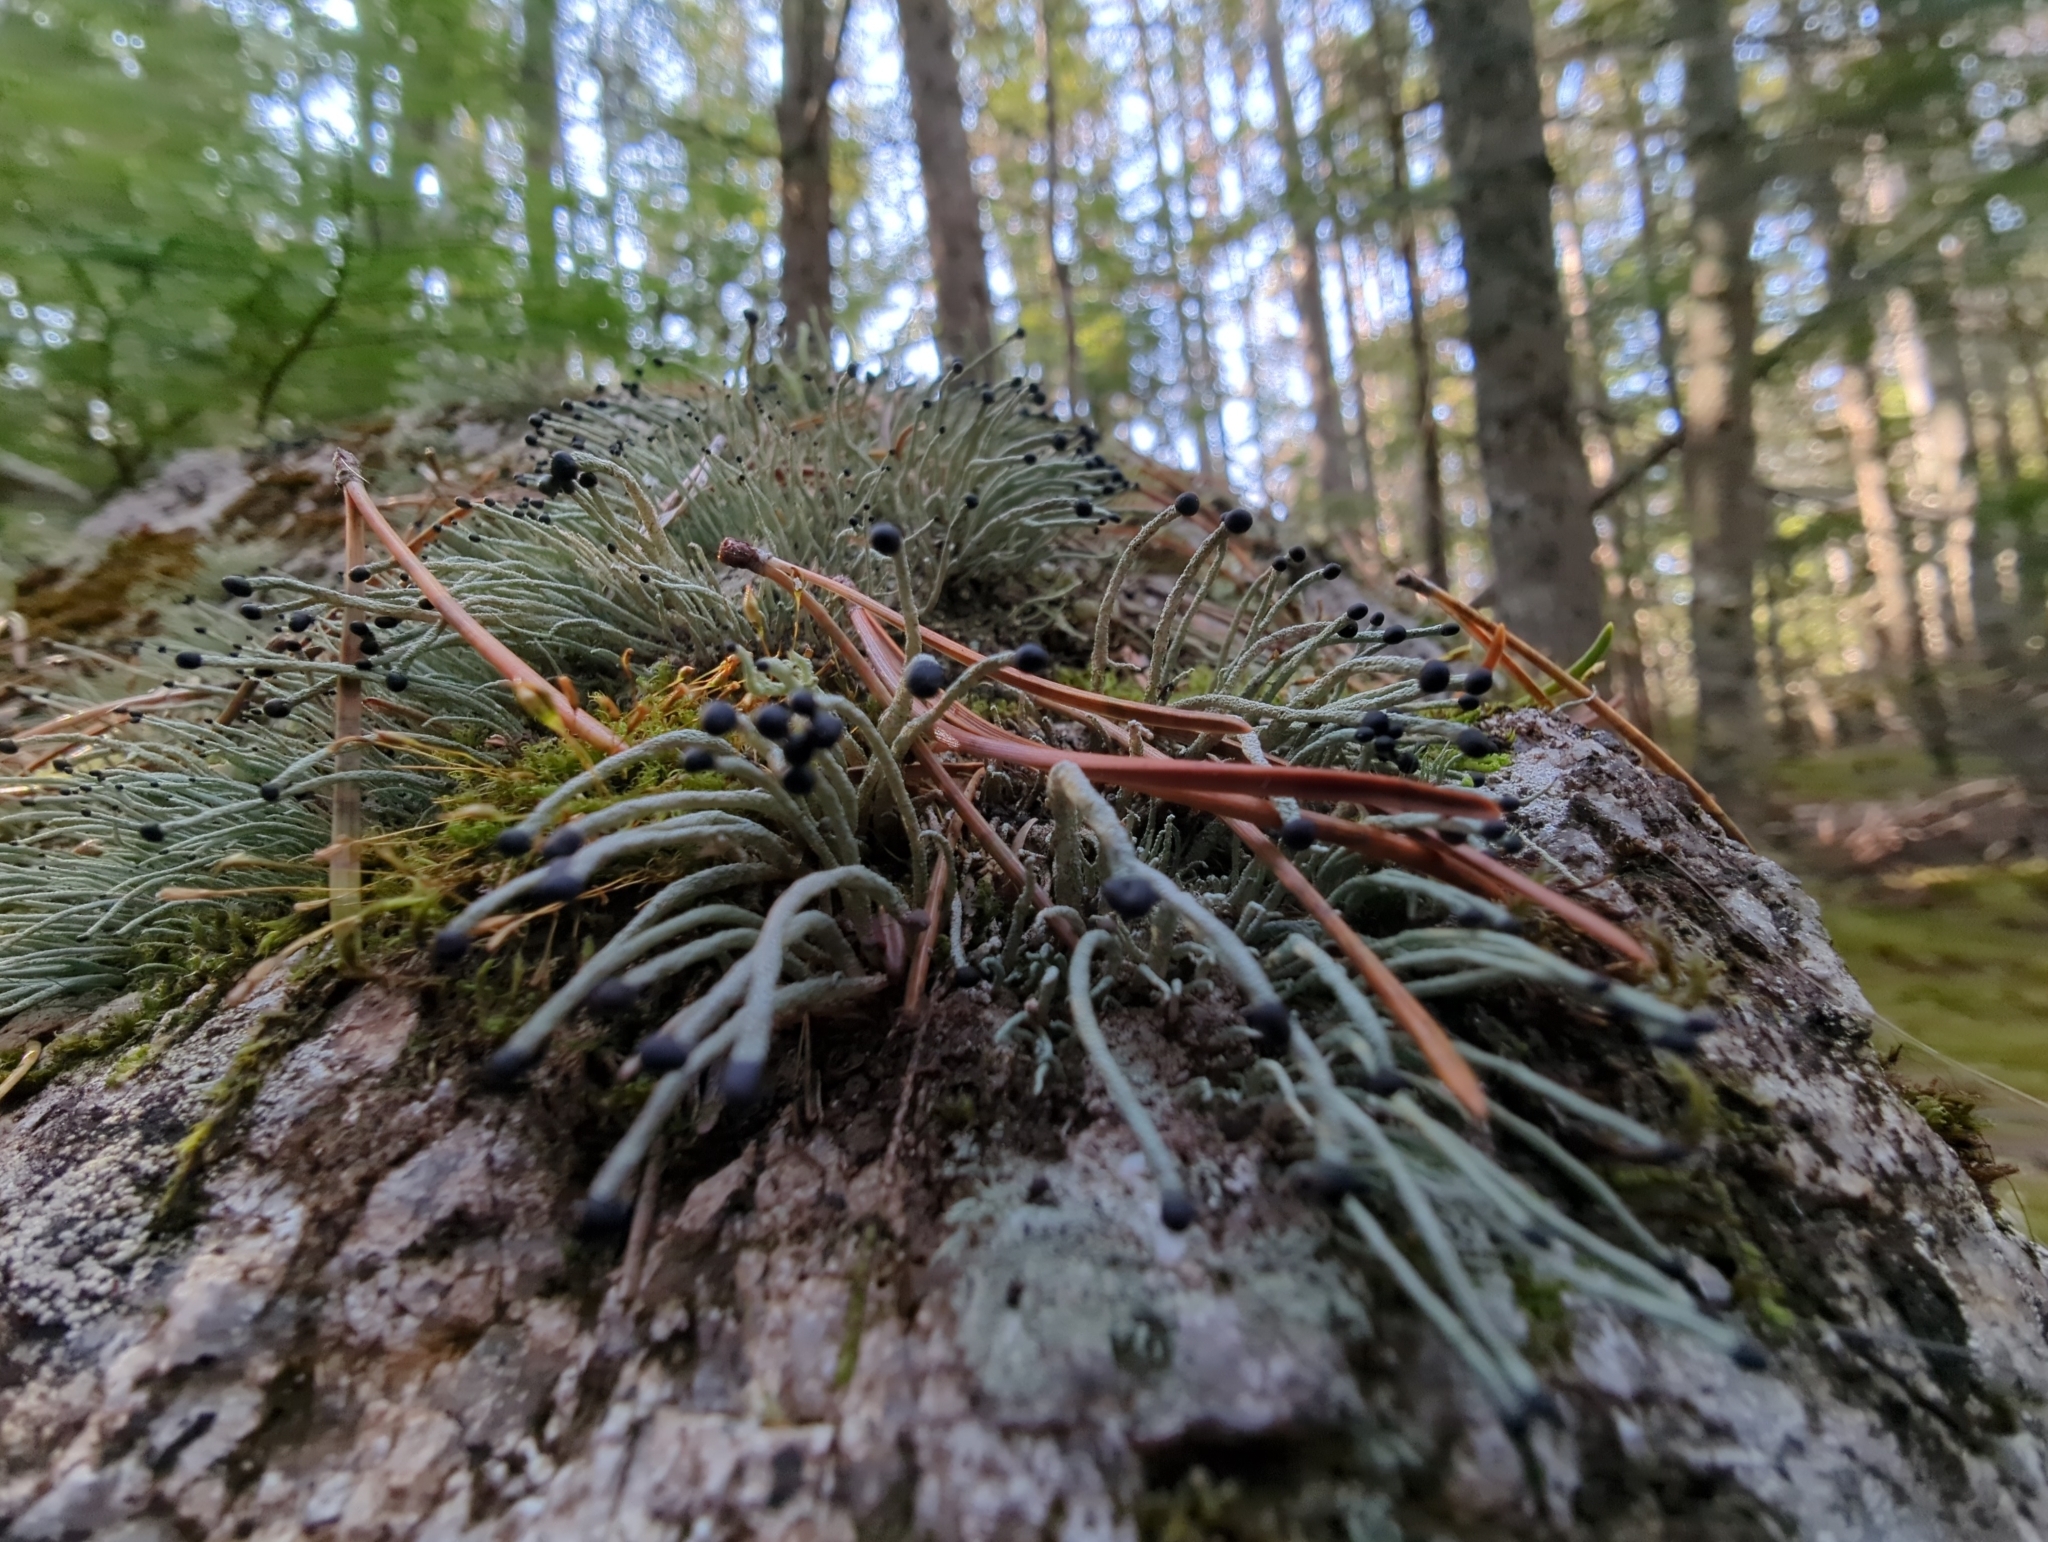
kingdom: Fungi
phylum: Ascomycota
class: Lecanoromycetes
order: Lecanorales
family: Cladoniaceae
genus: Pilophorus
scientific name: Pilophorus acicularis
